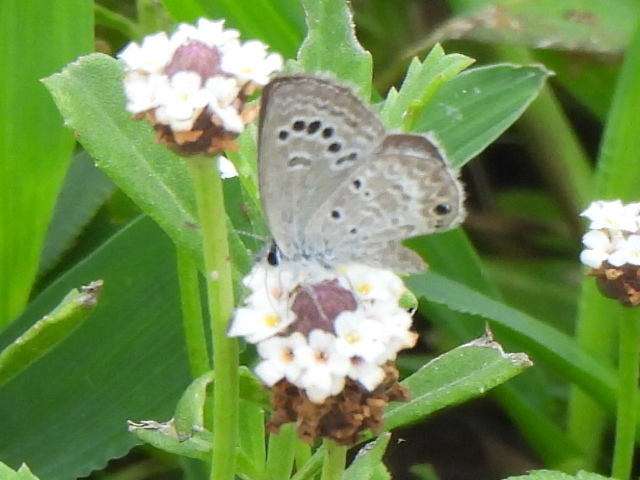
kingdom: Animalia
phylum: Arthropoda
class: Insecta
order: Lepidoptera
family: Lycaenidae
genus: Echinargus
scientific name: Echinargus isola
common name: Reakirt's blue
